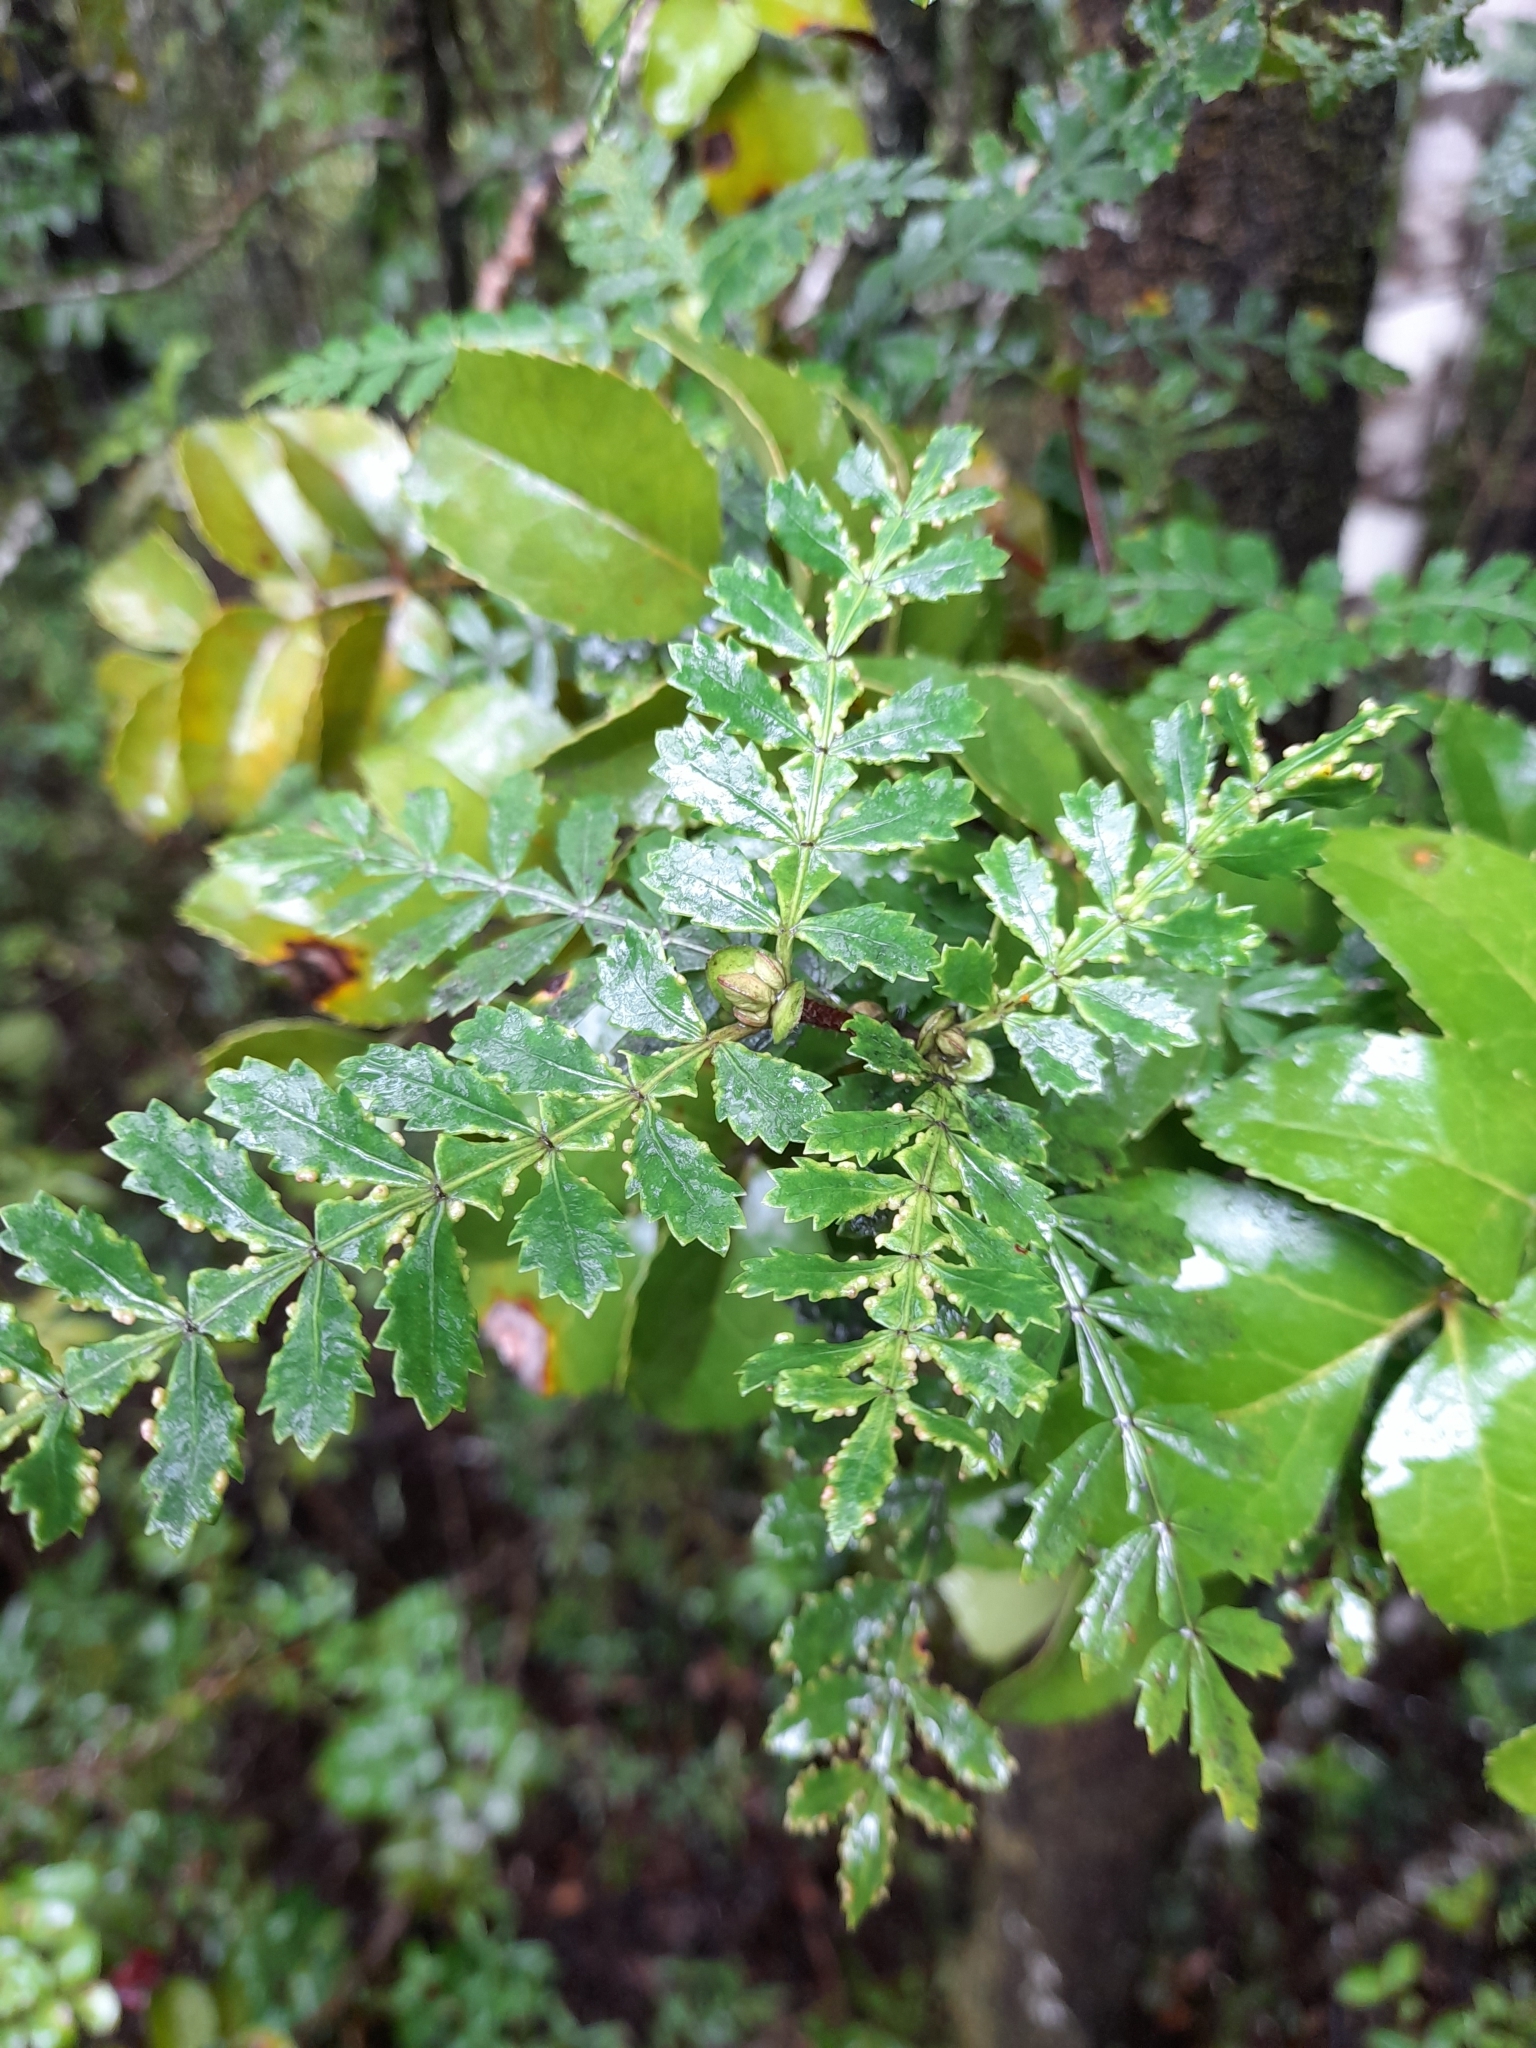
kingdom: Plantae
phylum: Tracheophyta
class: Magnoliopsida
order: Oxalidales
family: Cunoniaceae
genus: Weinmannia
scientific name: Weinmannia trichosperma
